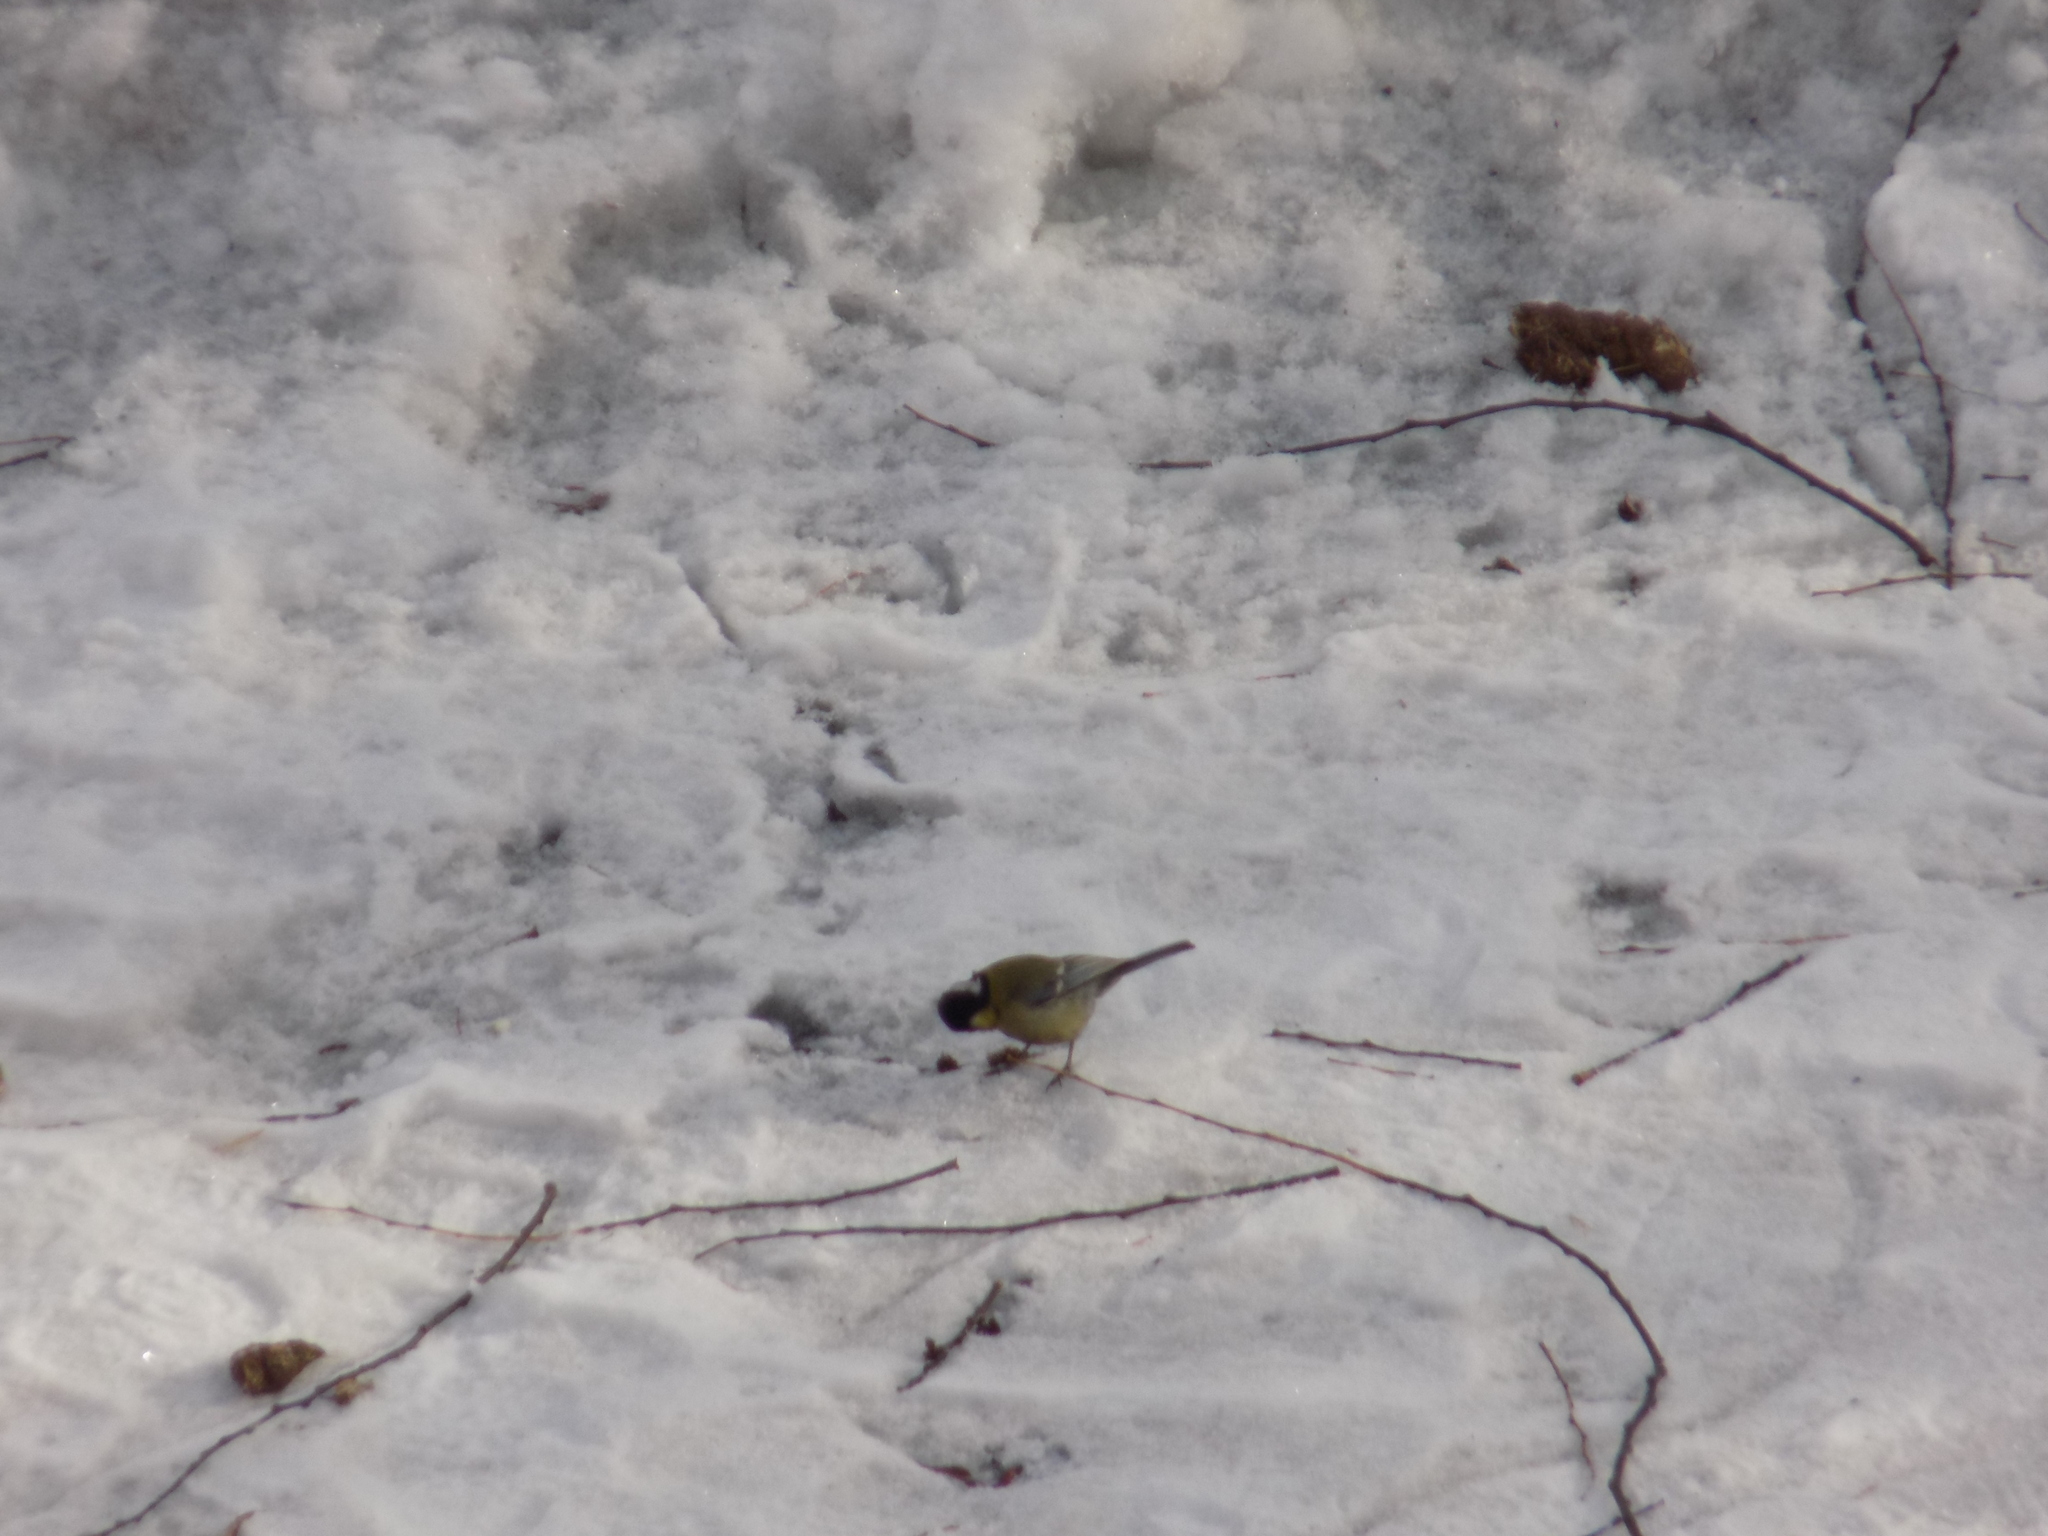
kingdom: Animalia
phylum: Chordata
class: Aves
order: Passeriformes
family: Paridae
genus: Parus
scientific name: Parus major
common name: Great tit
